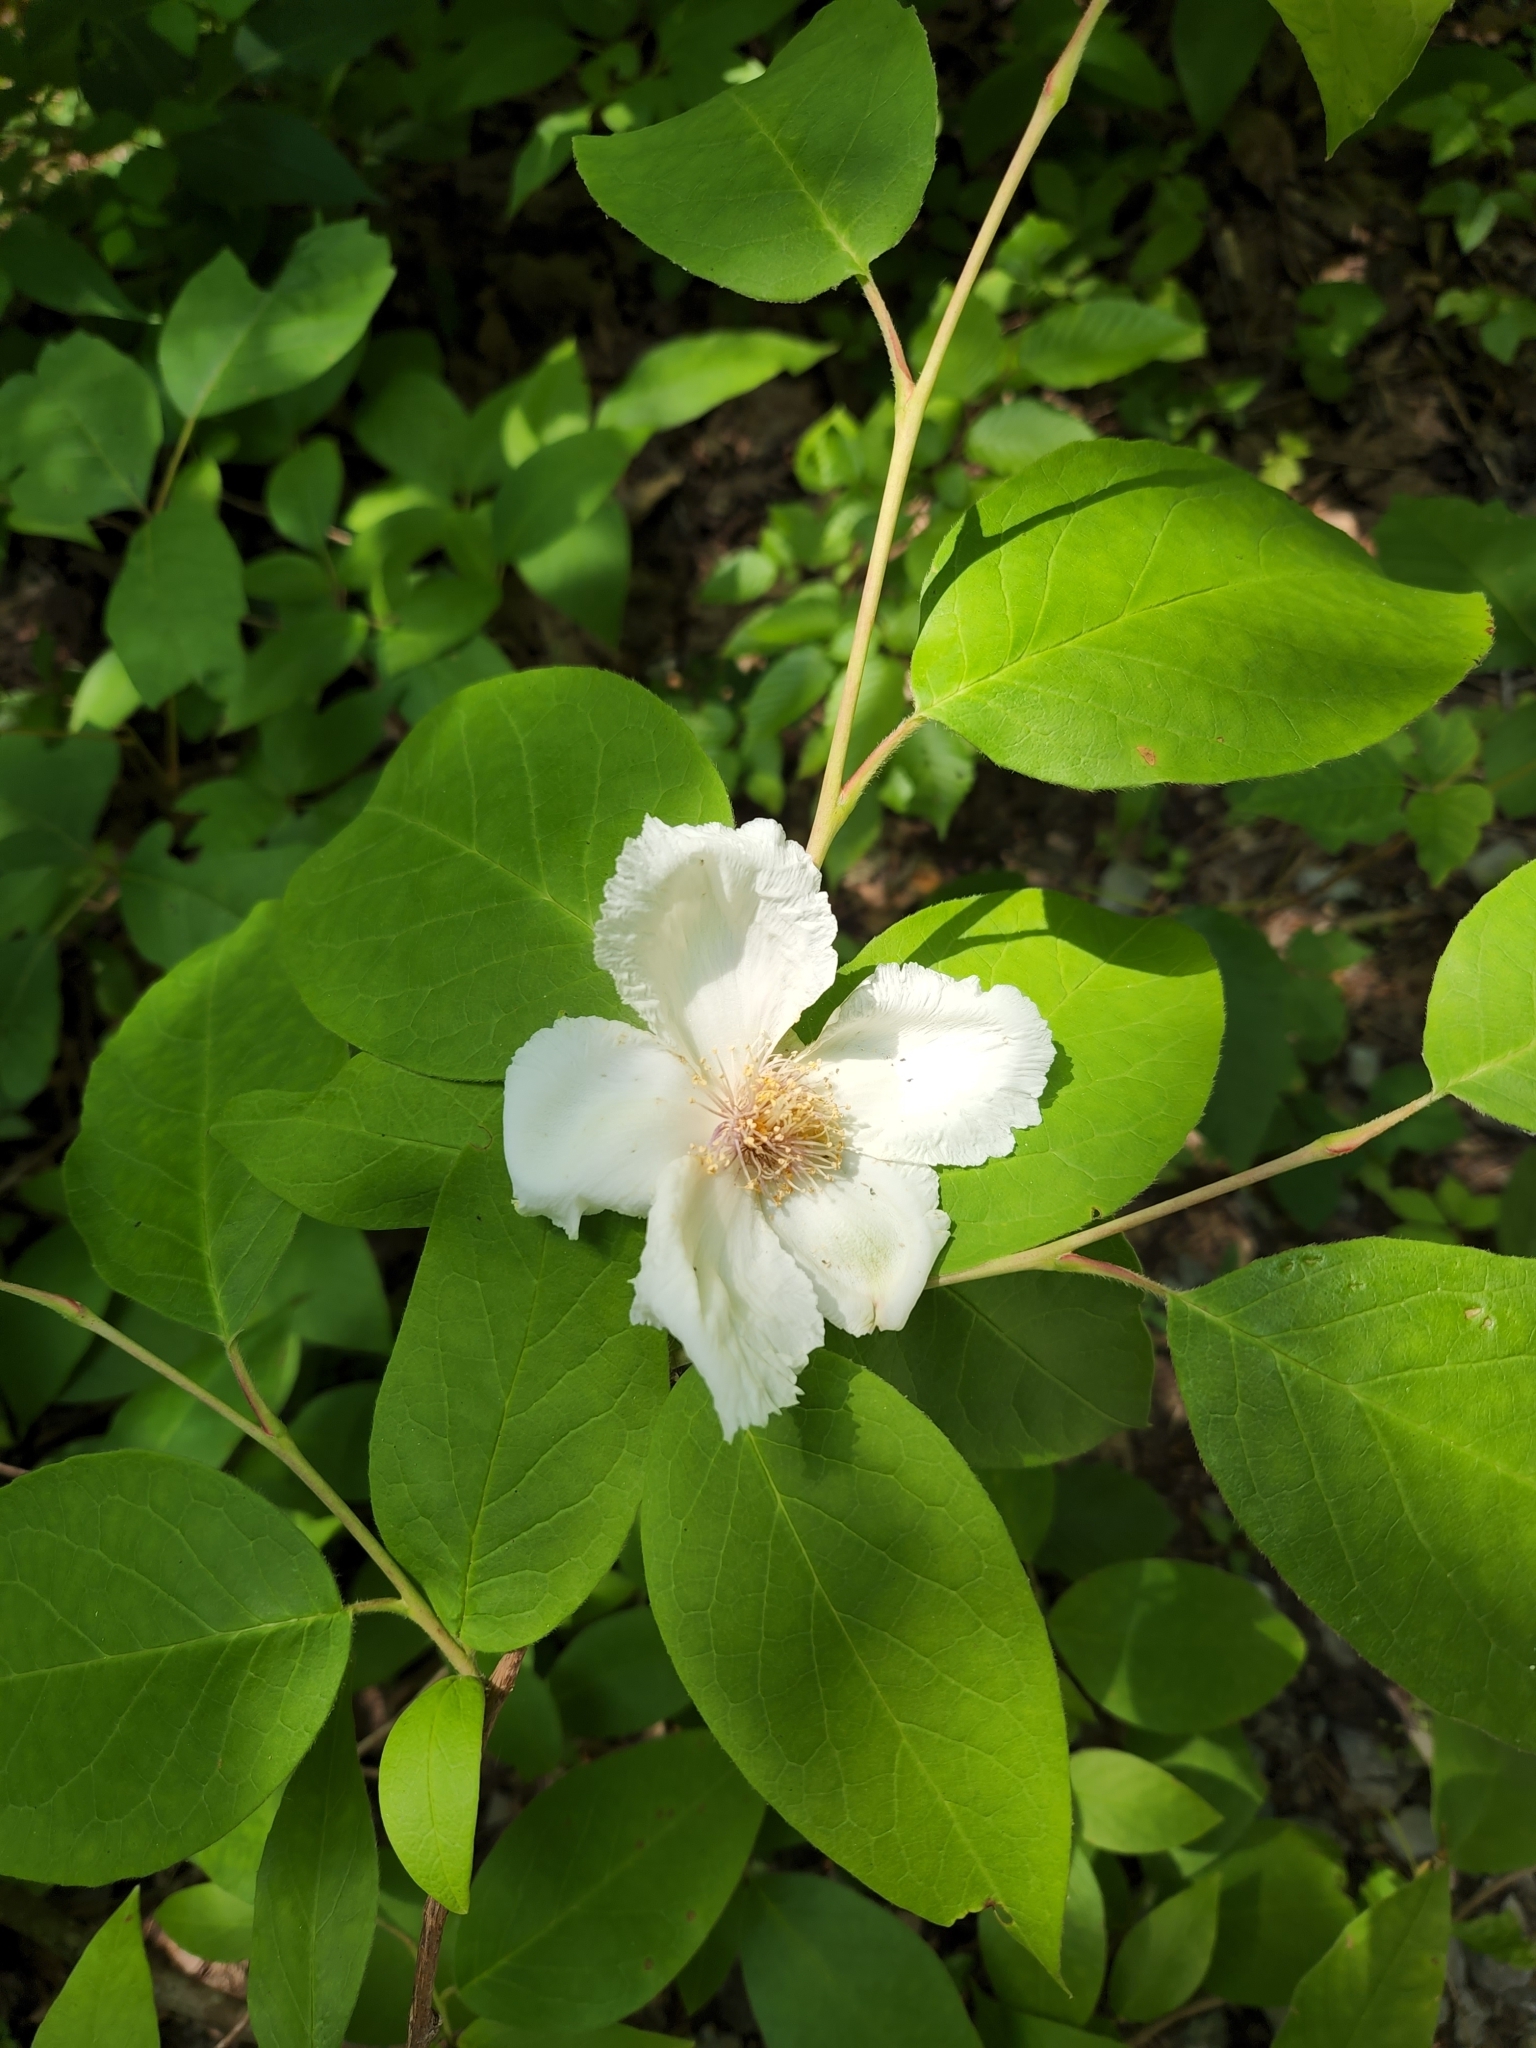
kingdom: Plantae
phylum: Tracheophyta
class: Magnoliopsida
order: Ericales
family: Theaceae
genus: Stewartia
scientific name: Stewartia ovata
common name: Mountain camellia
